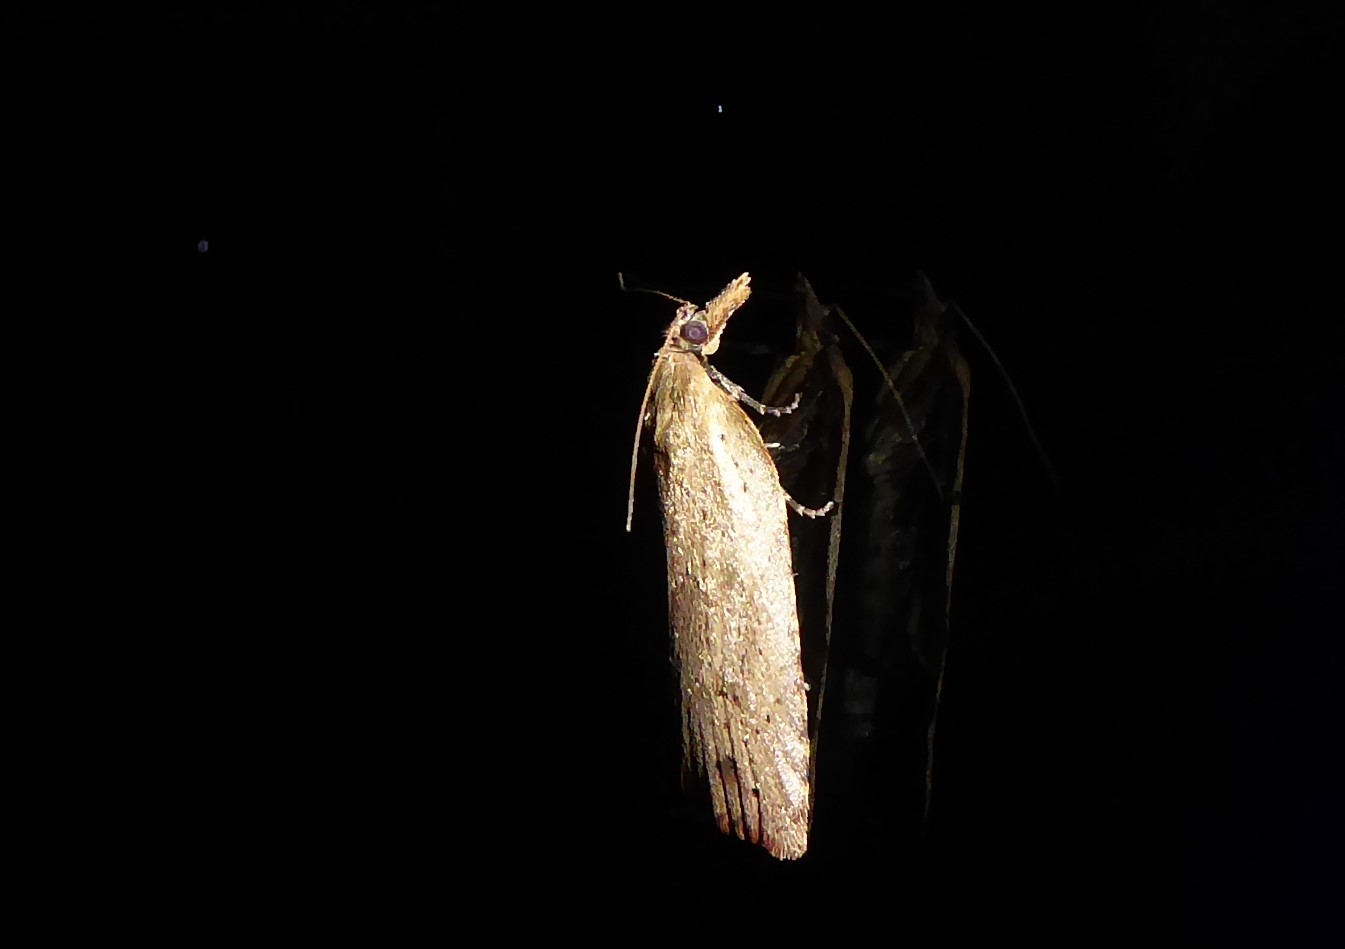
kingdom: Animalia
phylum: Arthropoda
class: Insecta
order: Lepidoptera
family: Tortricidae
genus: Planotortrix
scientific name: Planotortrix notophaea
